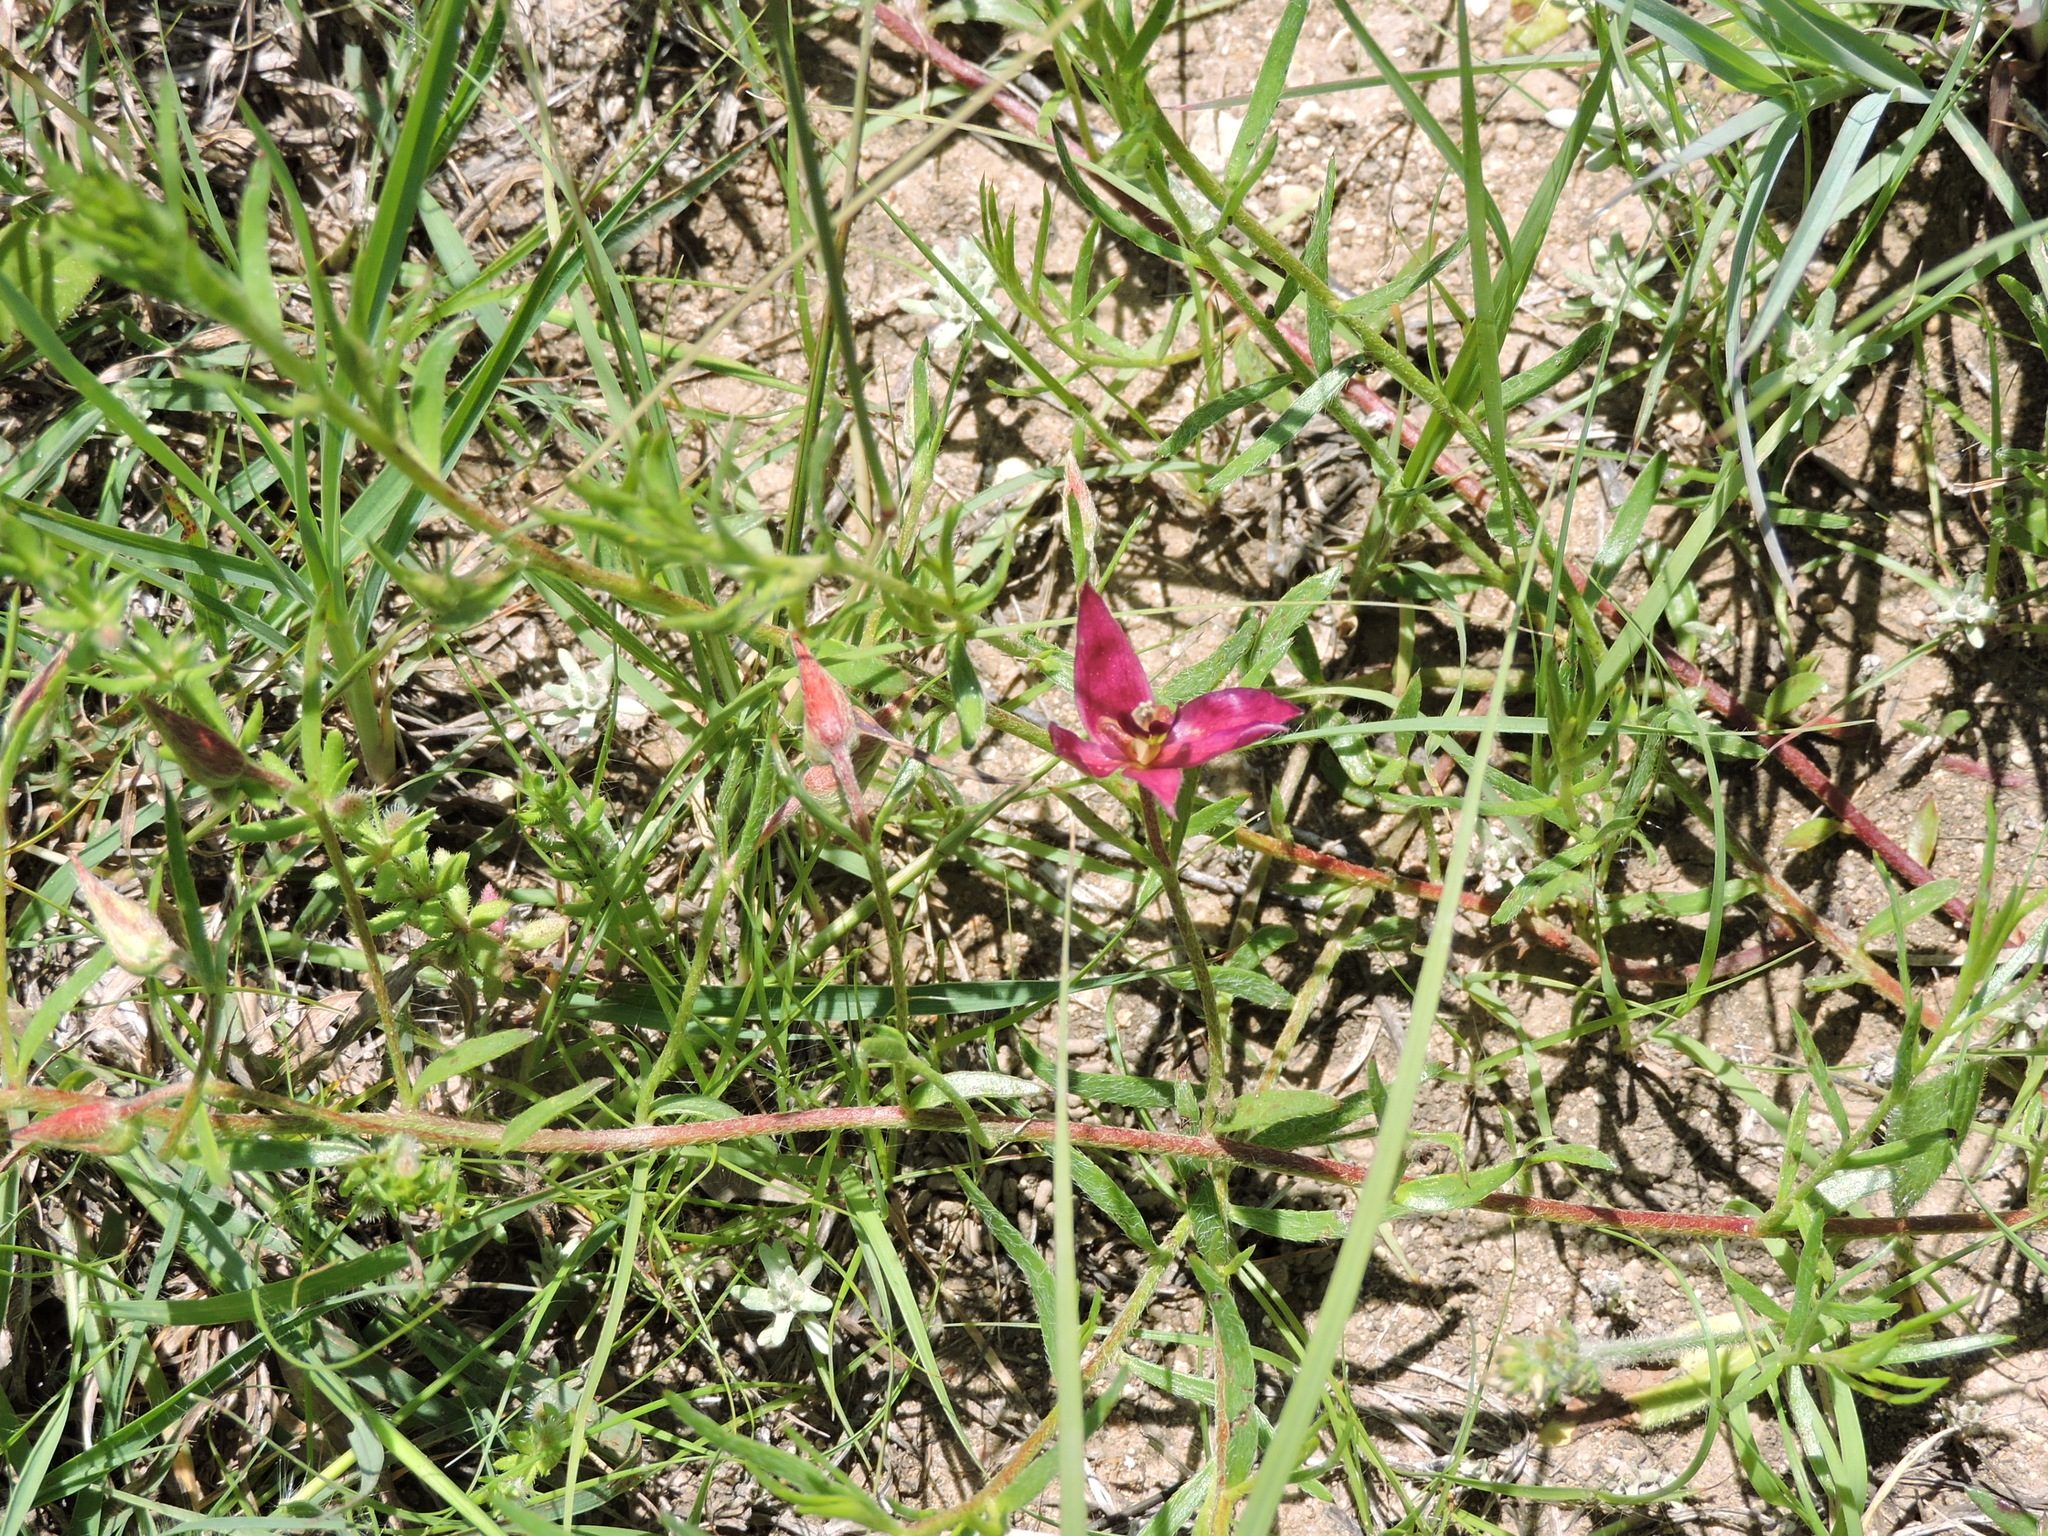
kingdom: Plantae
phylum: Tracheophyta
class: Magnoliopsida
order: Zygophyllales
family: Krameriaceae
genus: Krameria
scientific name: Krameria lanceolata
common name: Ratany
